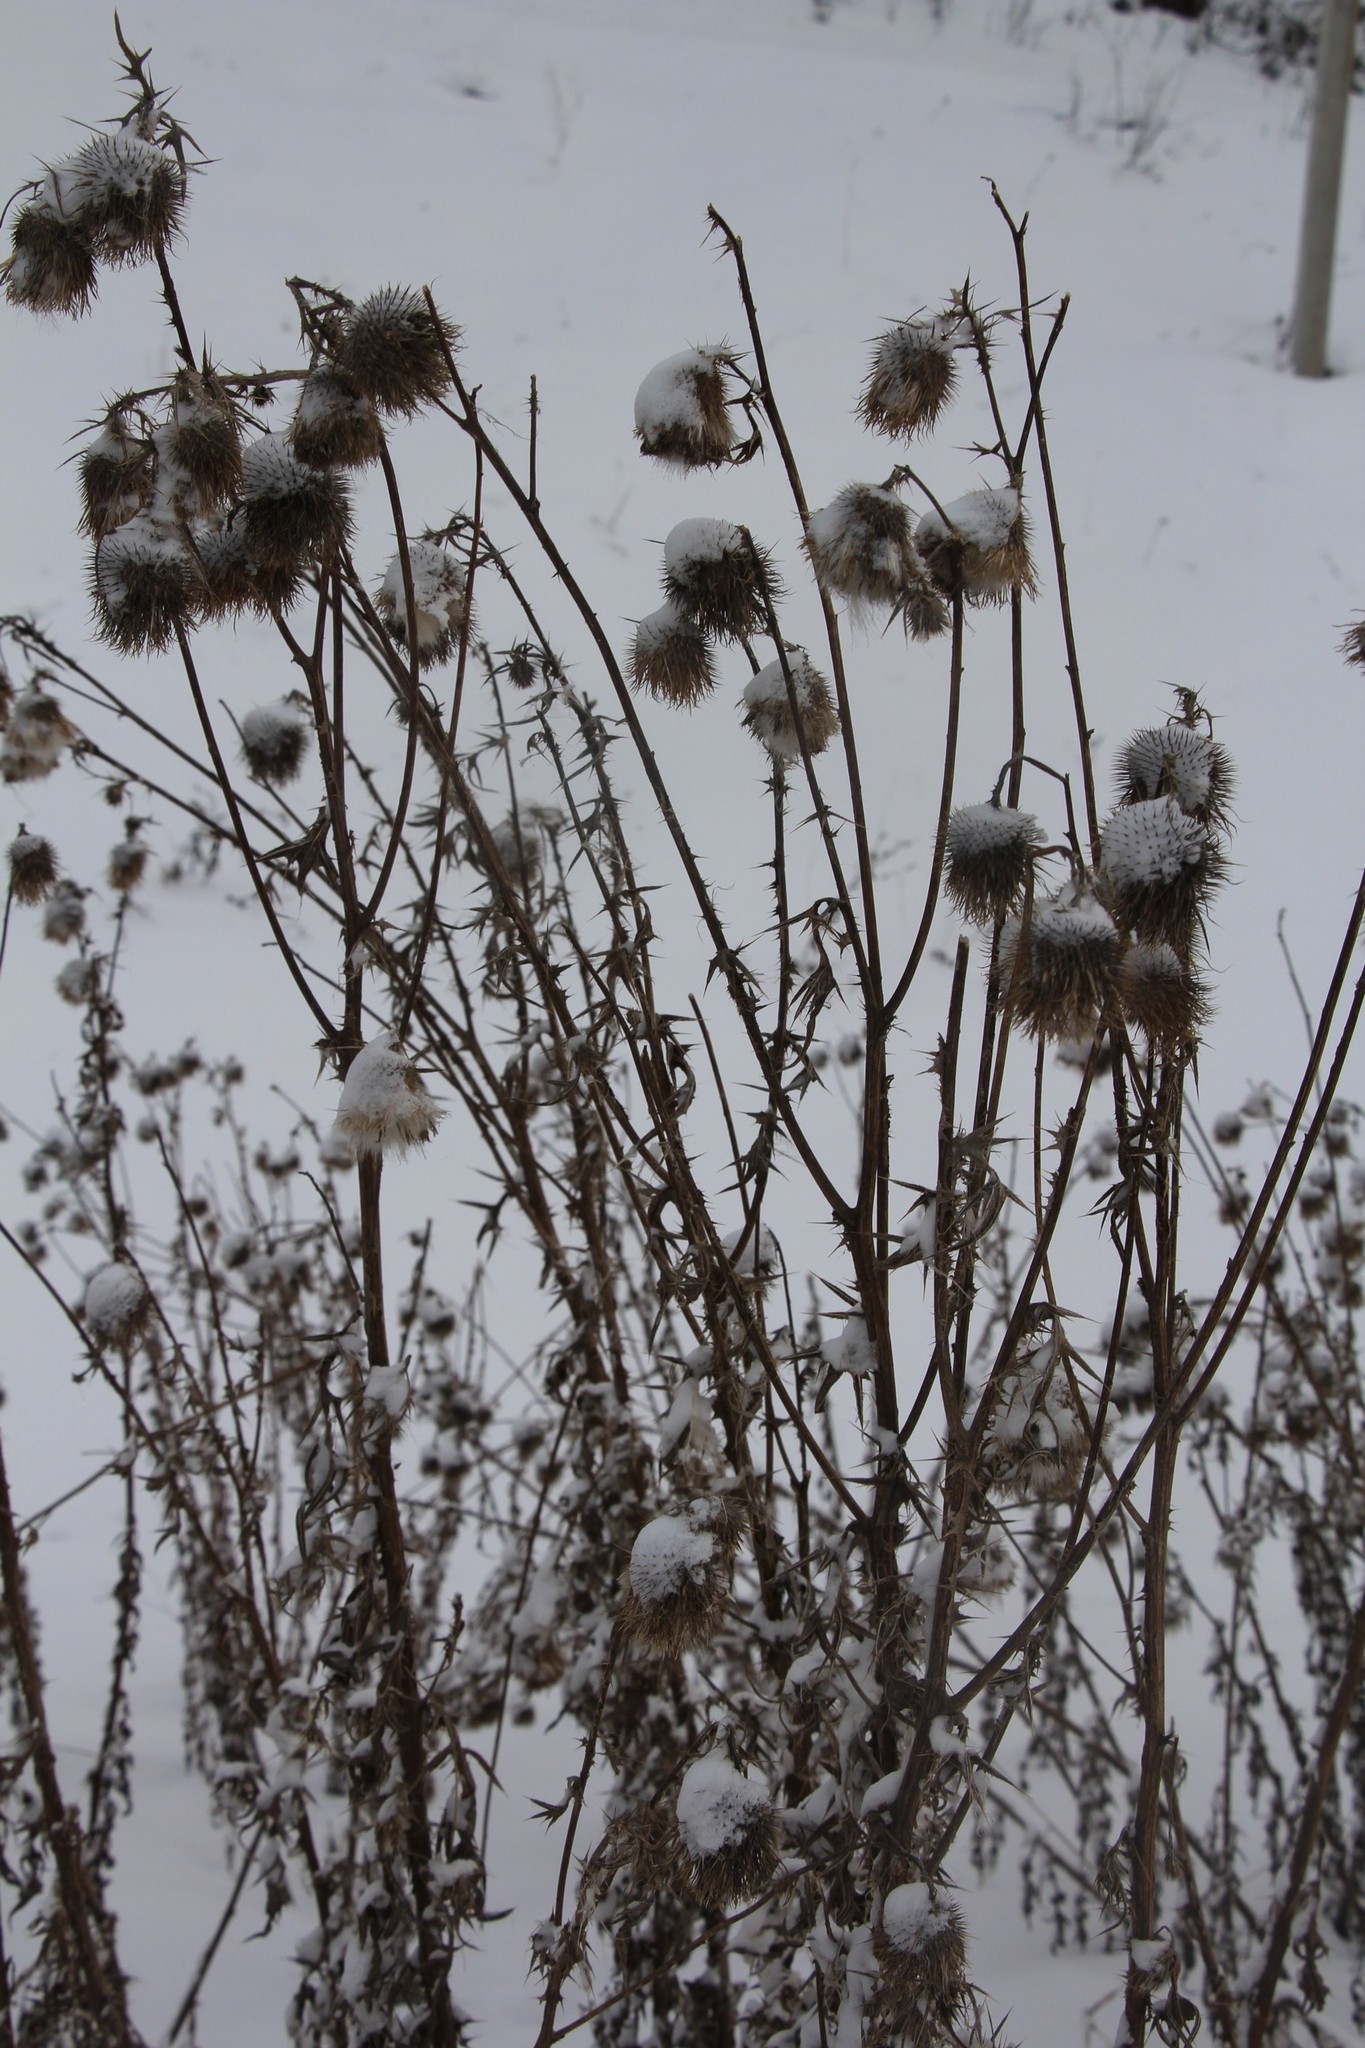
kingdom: Plantae
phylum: Tracheophyta
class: Magnoliopsida
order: Asterales
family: Asteraceae
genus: Cirsium
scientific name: Cirsium vulgare
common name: Bull thistle
